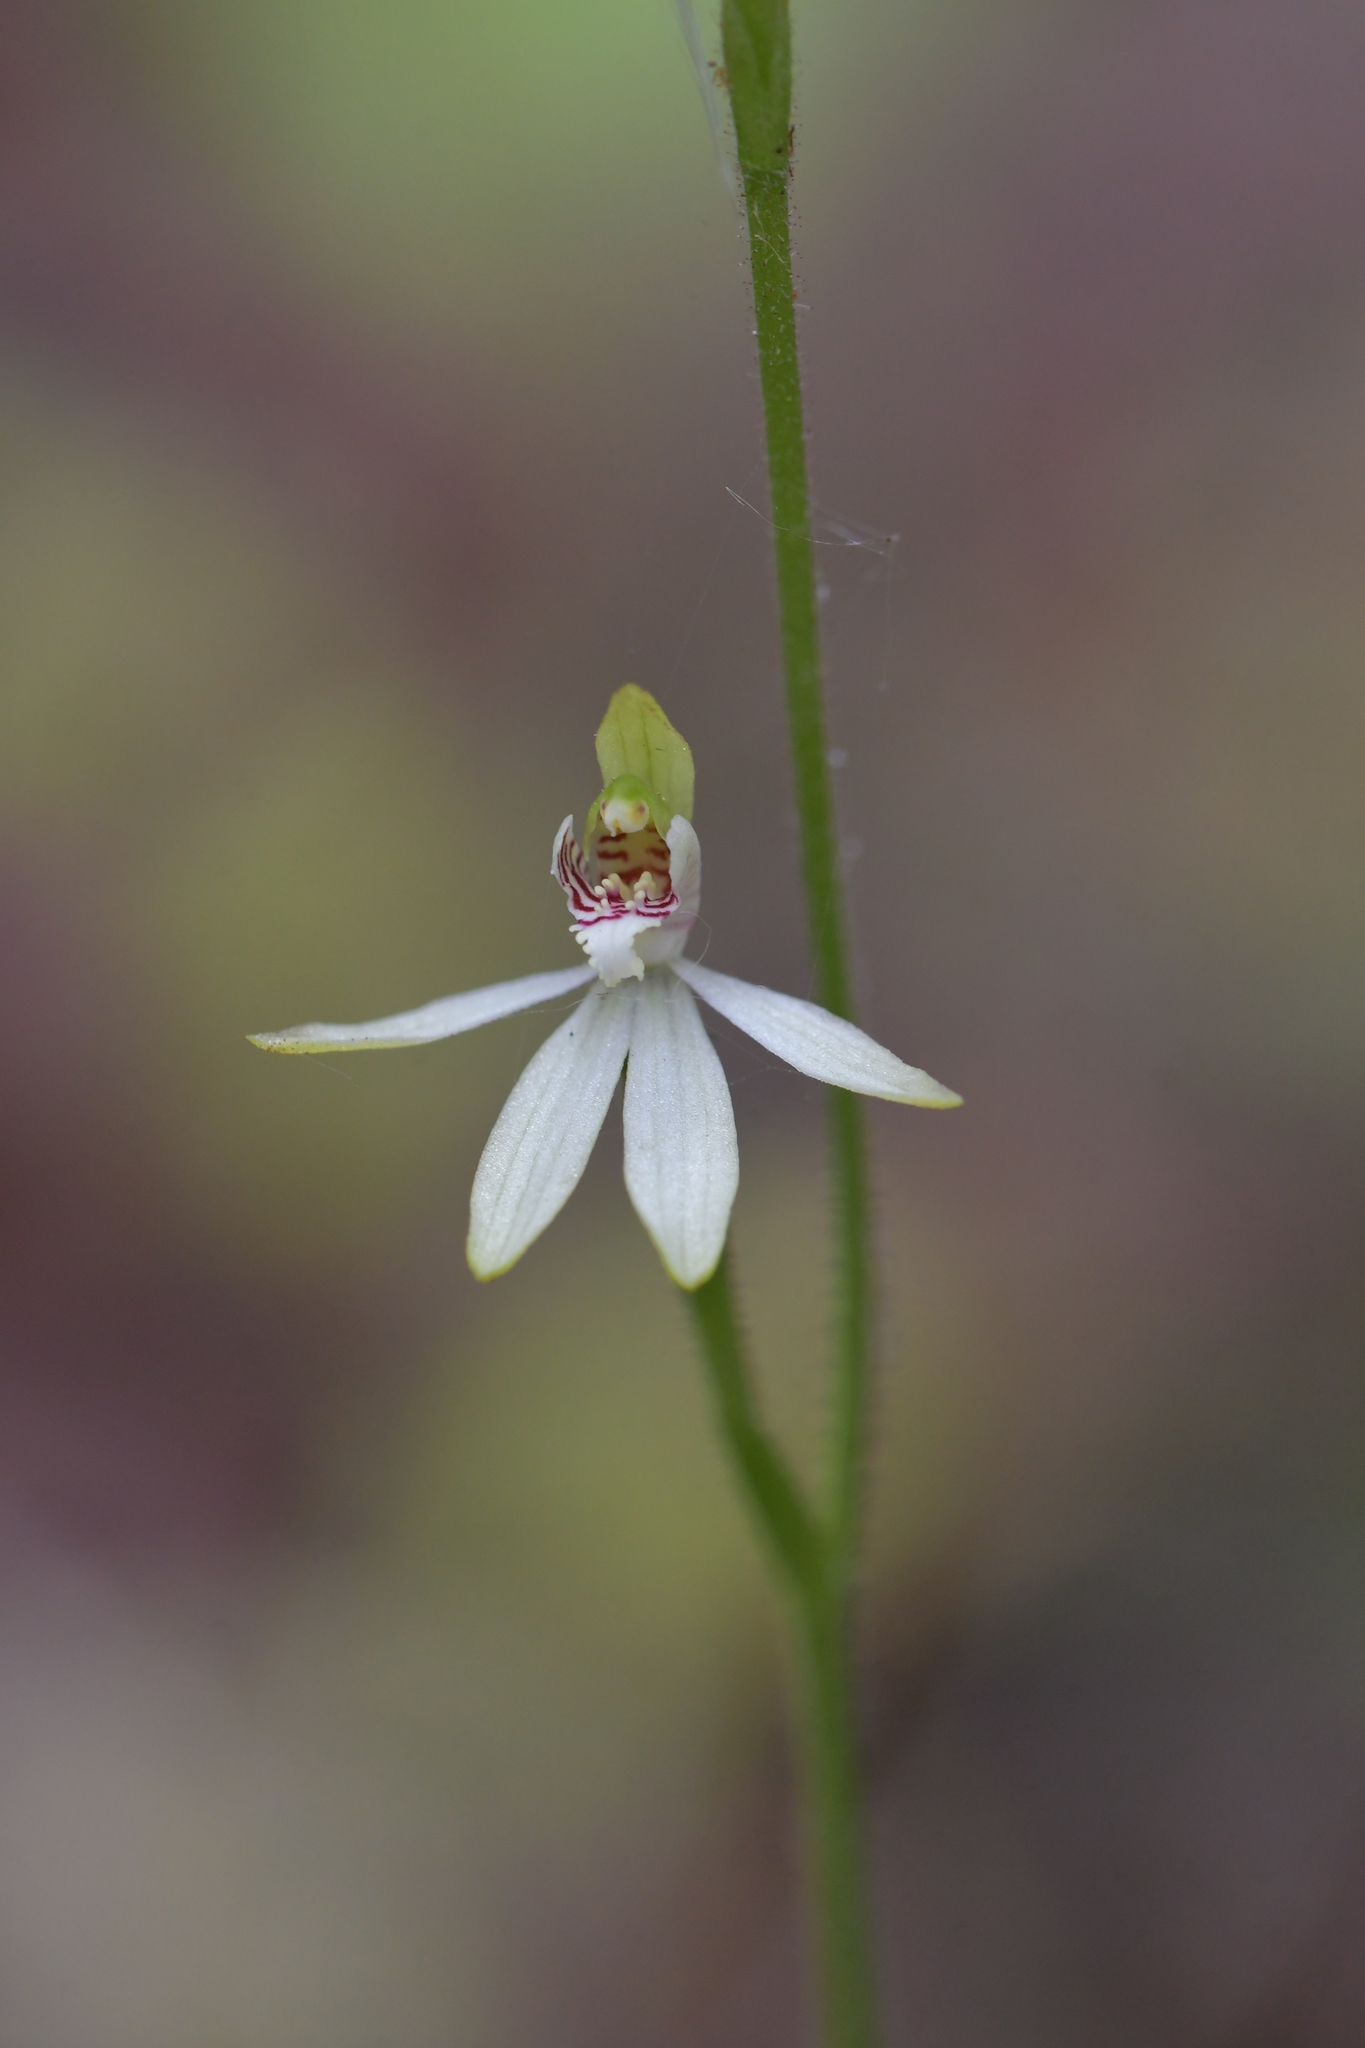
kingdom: Plantae
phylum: Tracheophyta
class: Liliopsida
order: Asparagales
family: Orchidaceae
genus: Caladenia
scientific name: Caladenia chlorostyla
